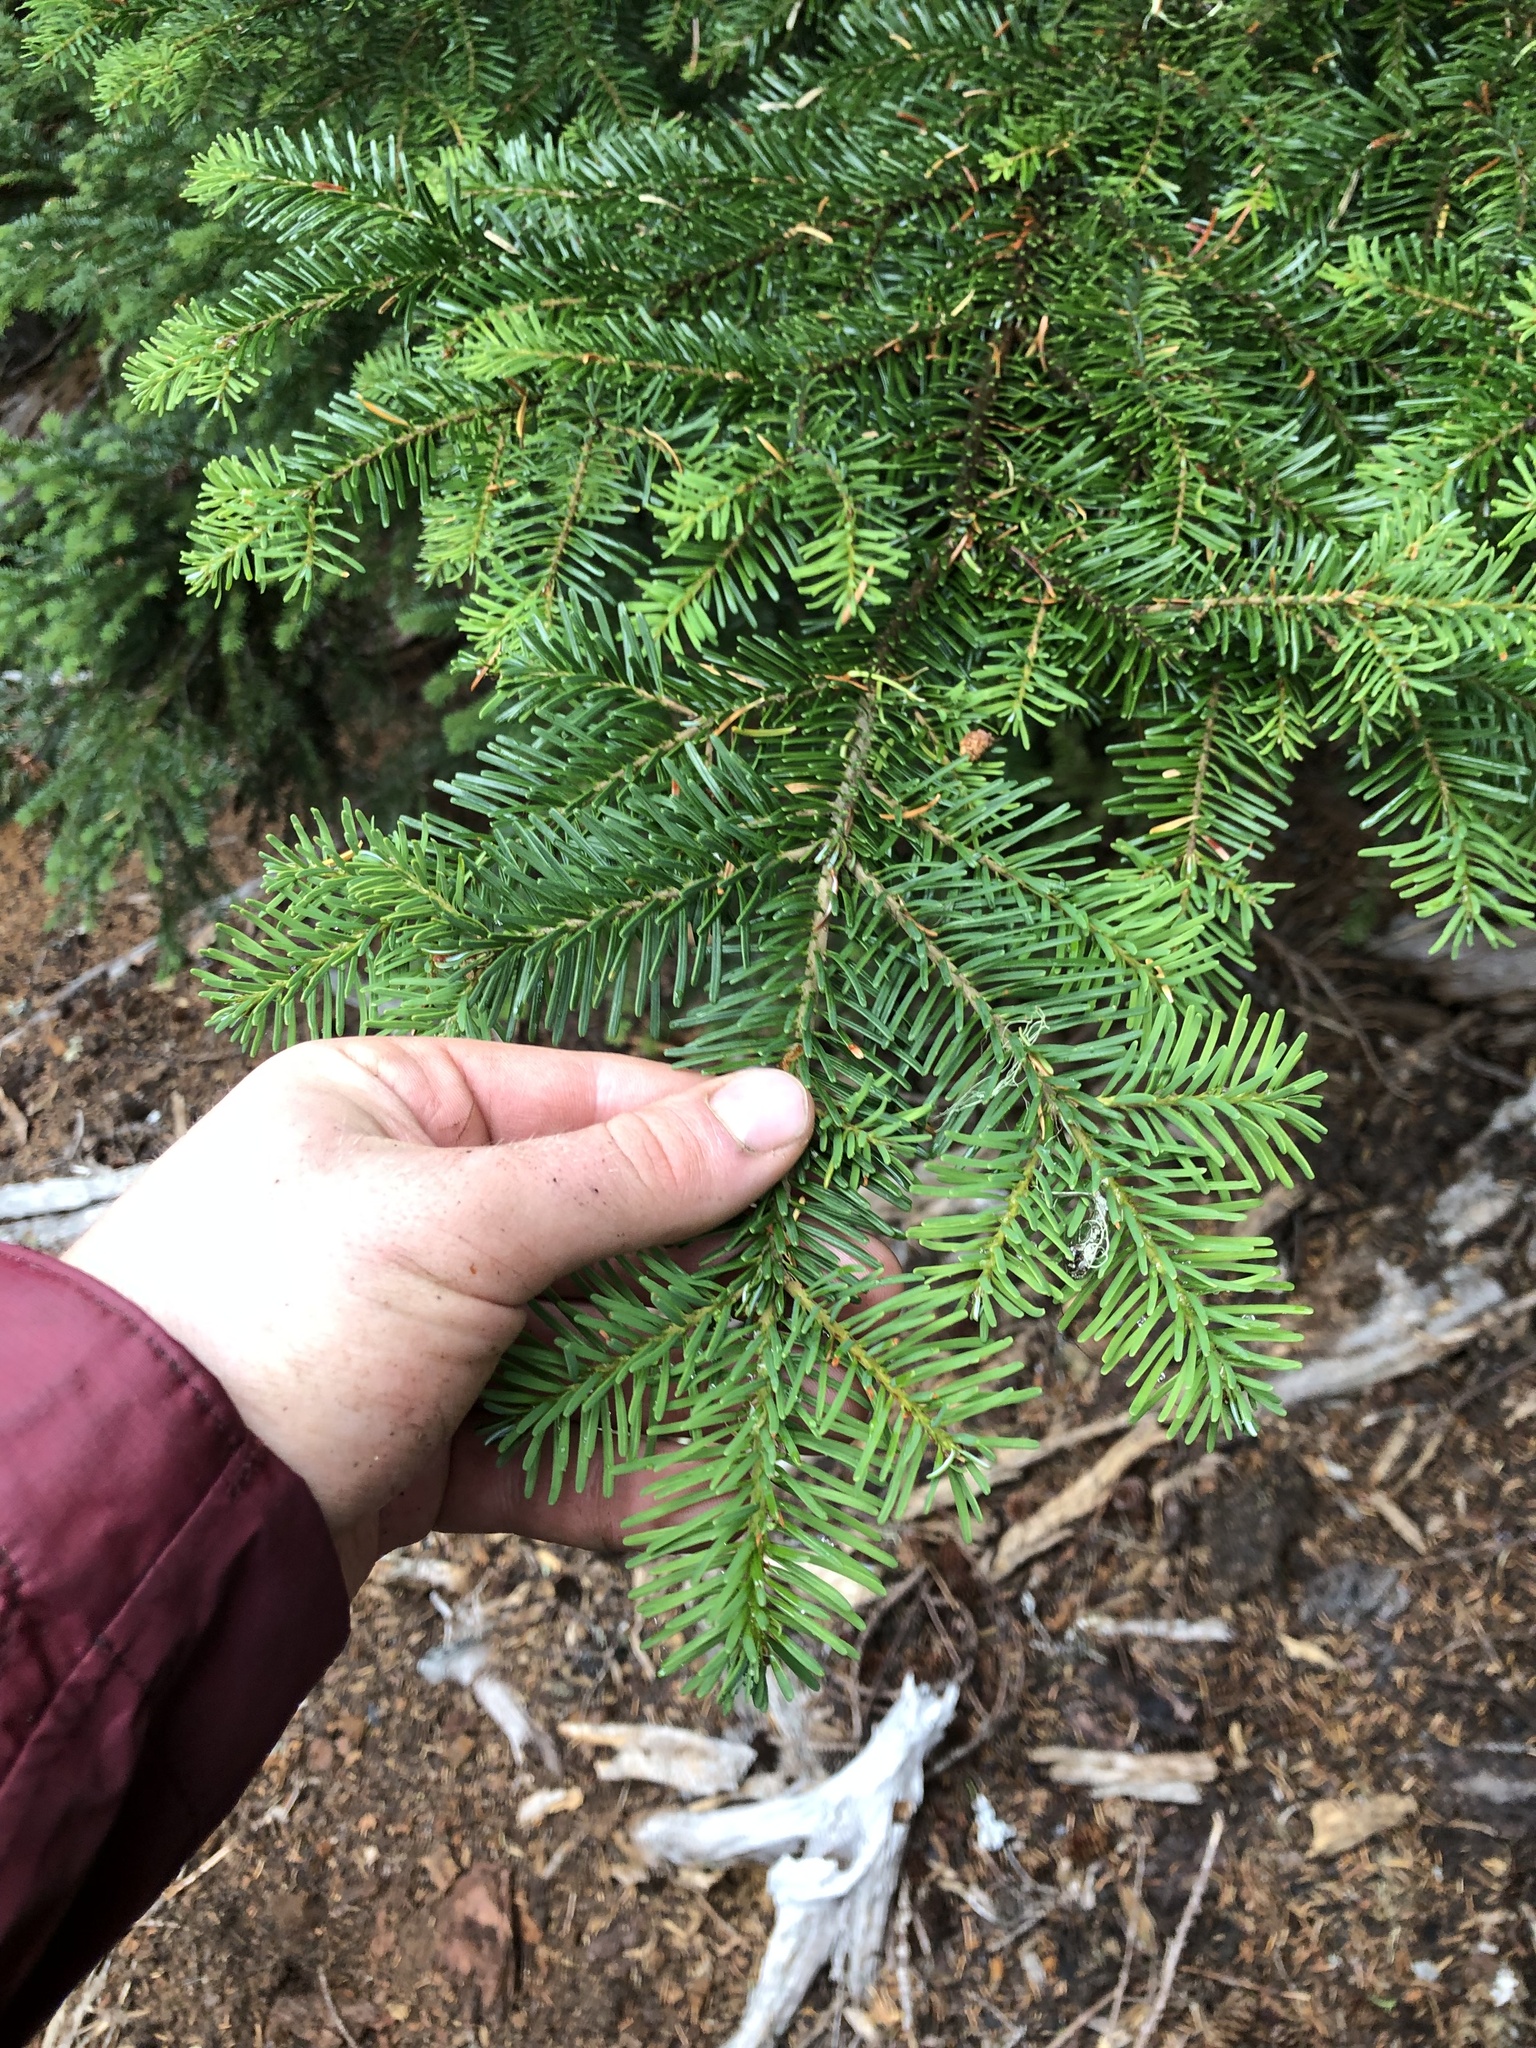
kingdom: Plantae
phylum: Tracheophyta
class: Pinopsida
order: Pinales
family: Pinaceae
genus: Abies
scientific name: Abies amabilis
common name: Pacific silver fir
